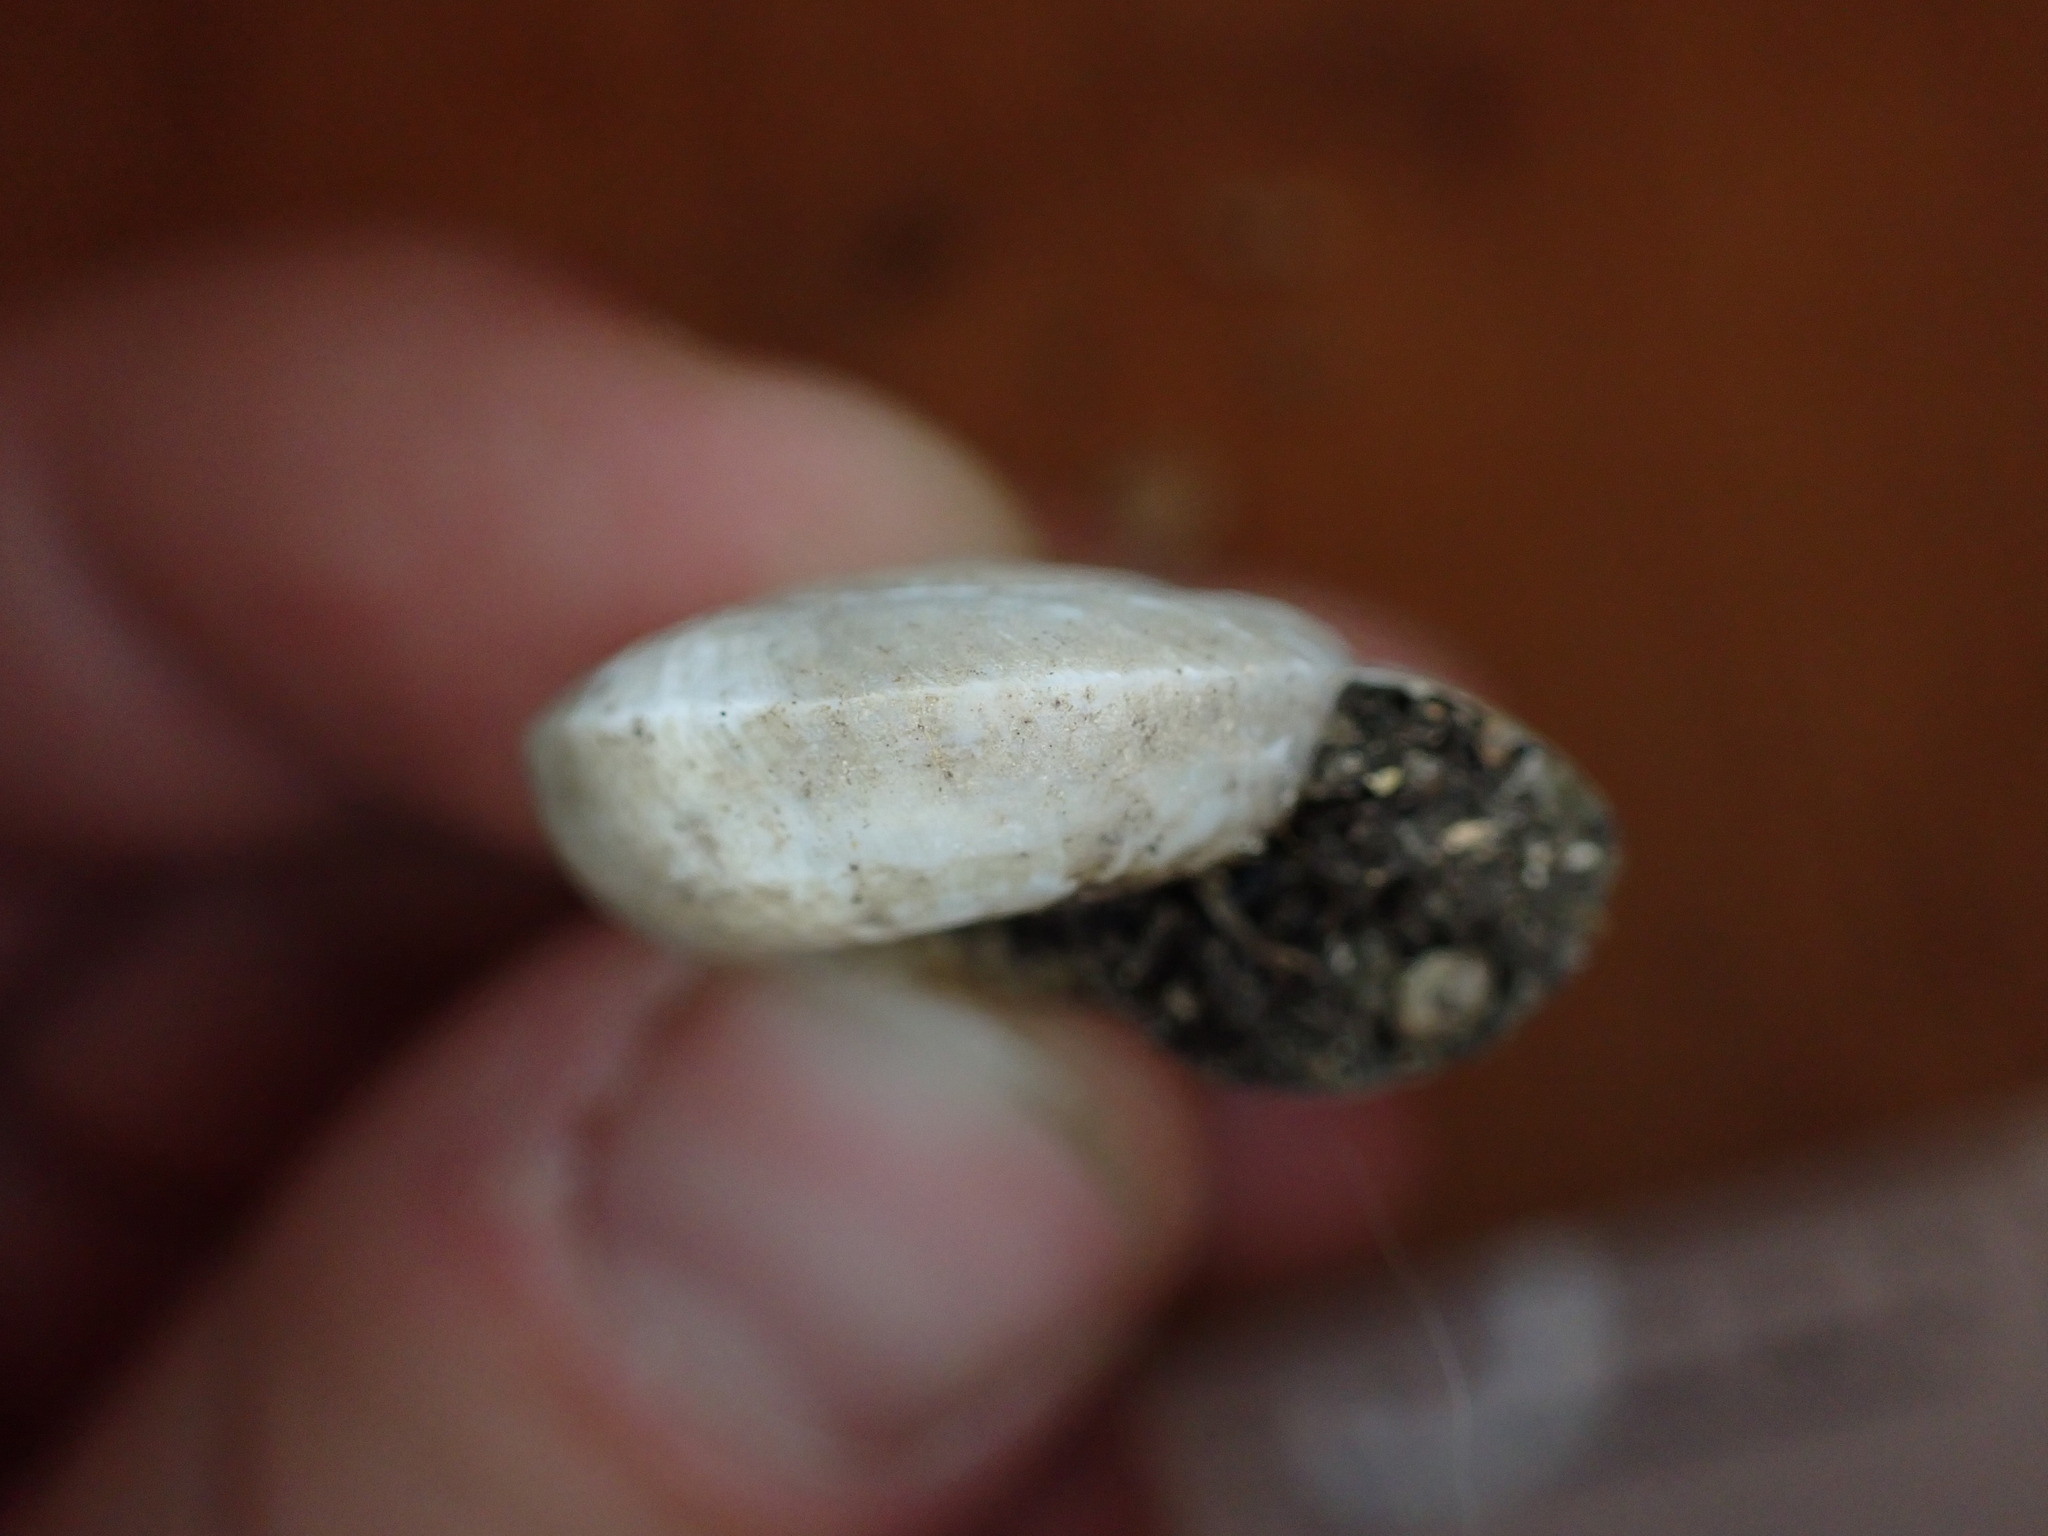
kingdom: Animalia
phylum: Mollusca
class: Gastropoda
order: Stylommatophora
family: Zonitidae
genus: Zonites
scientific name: Zonites algirus
